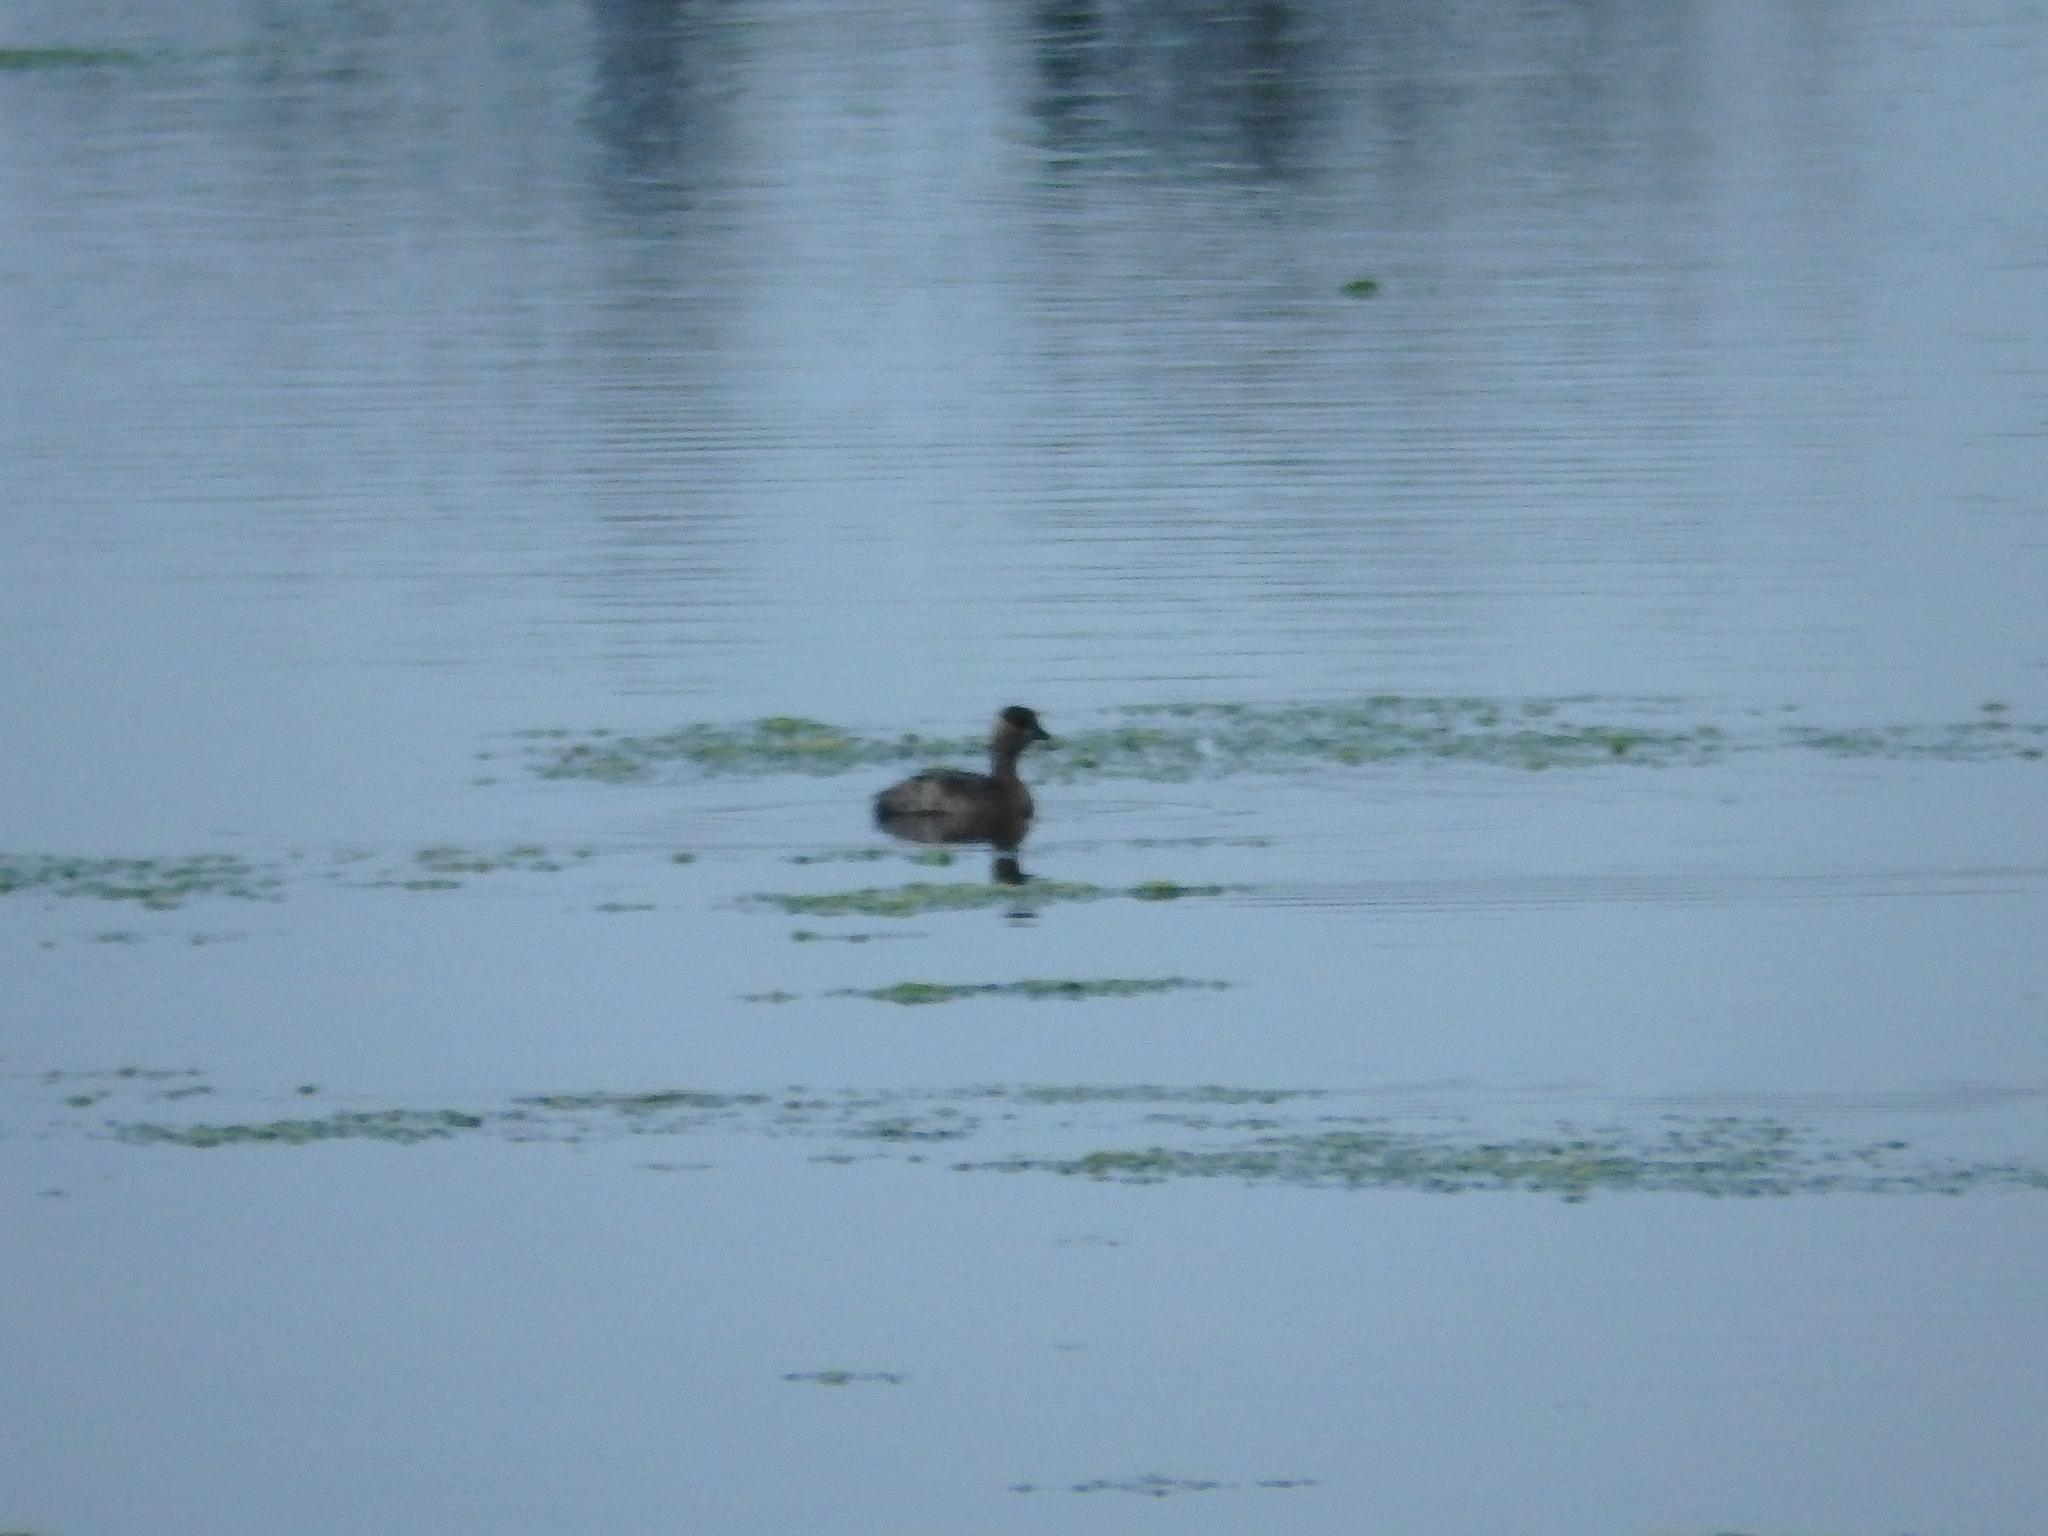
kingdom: Animalia
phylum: Chordata
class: Aves
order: Podicipediformes
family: Podicipedidae
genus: Tachybaptus
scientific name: Tachybaptus ruficollis
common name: Little grebe
